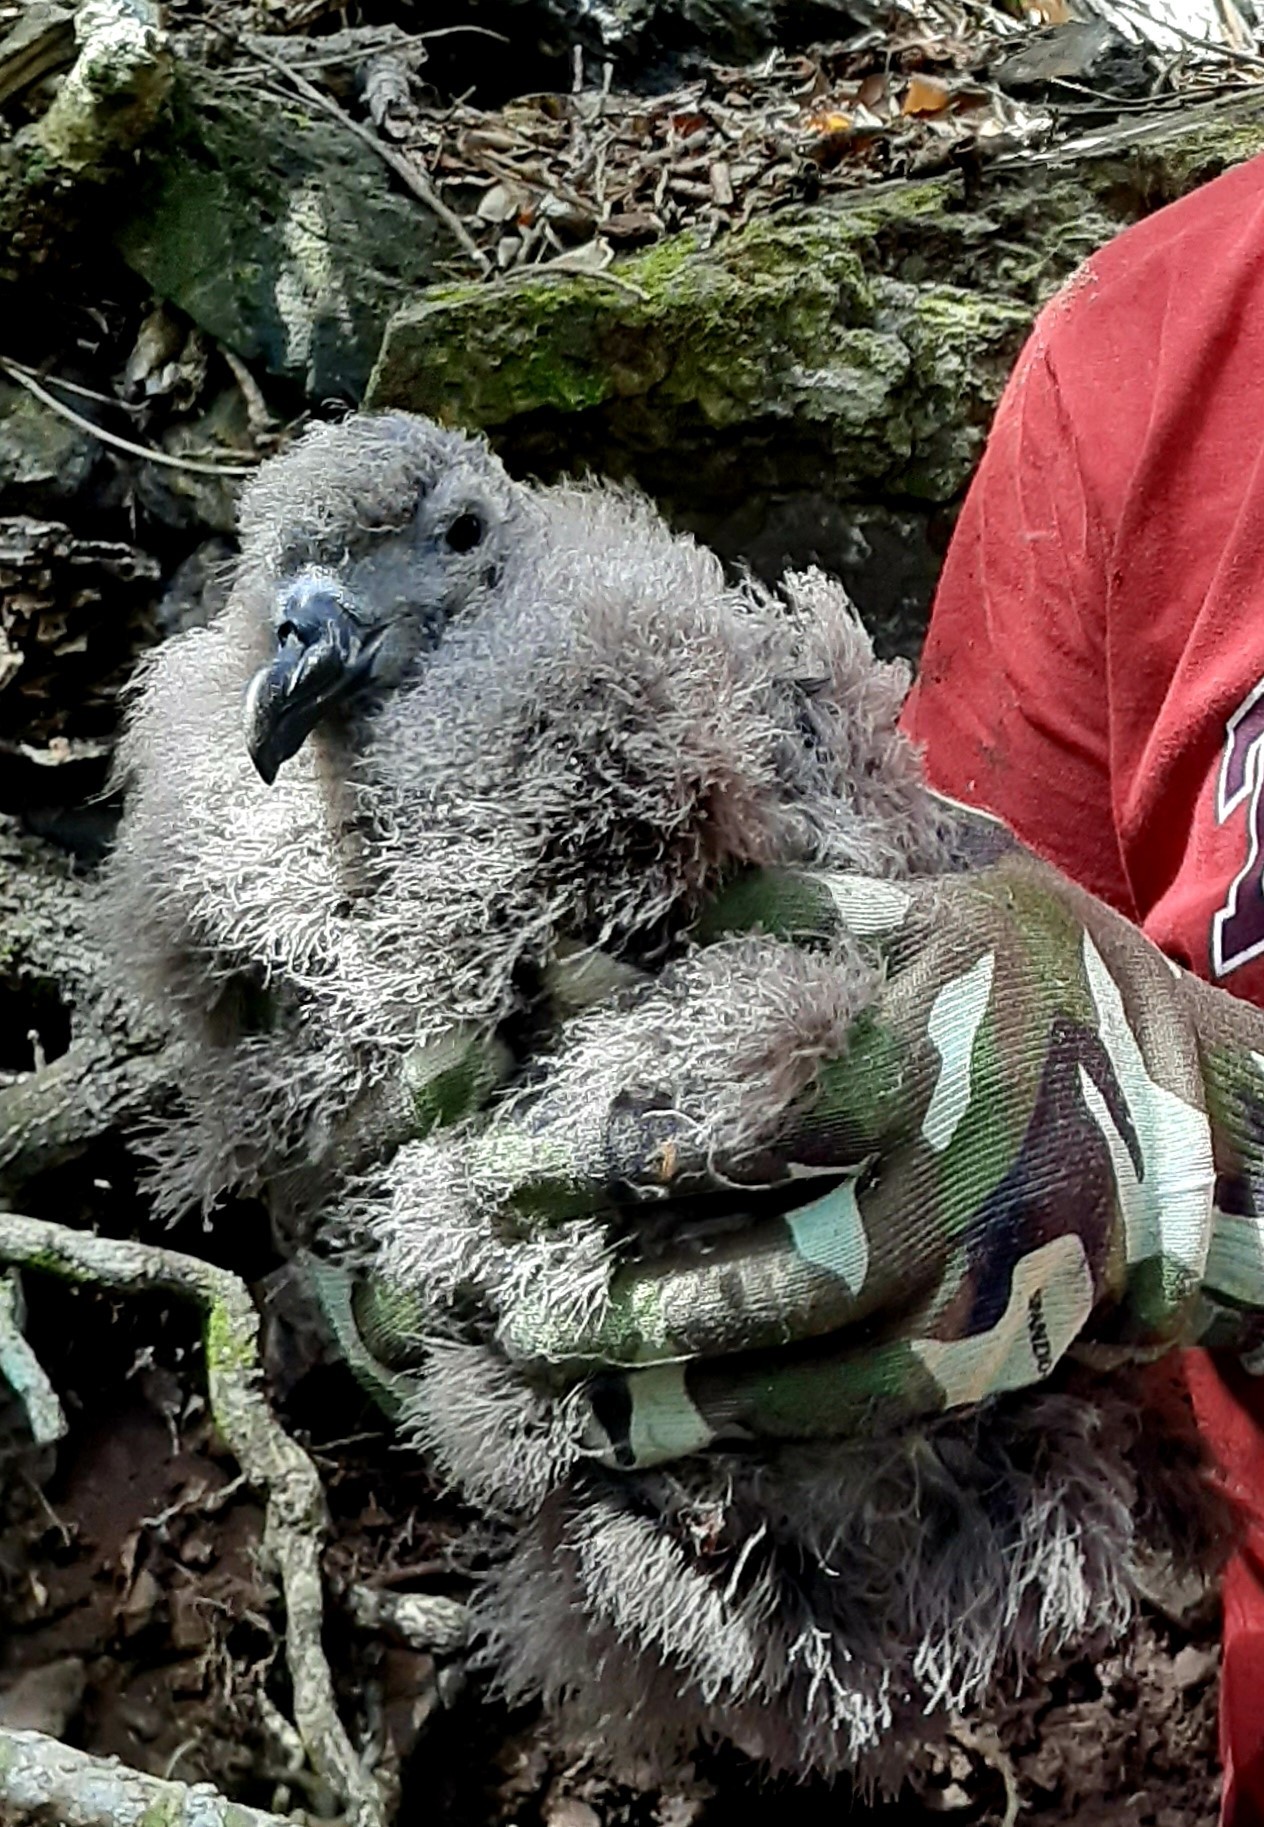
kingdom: Animalia
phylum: Chordata
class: Aves
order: Procellariiformes
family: Procellariidae
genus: Pterodroma
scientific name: Pterodroma macroptera
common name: Great-winged petrel
